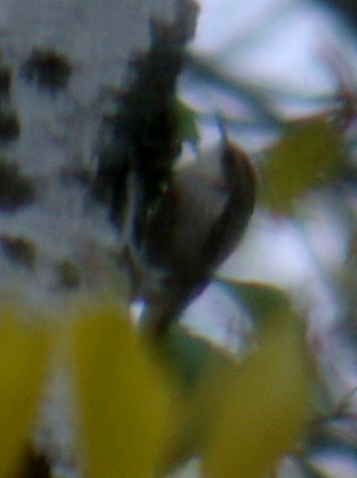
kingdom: Animalia
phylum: Chordata
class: Aves
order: Passeriformes
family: Certhiidae
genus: Certhia
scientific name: Certhia americana
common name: Brown creeper
